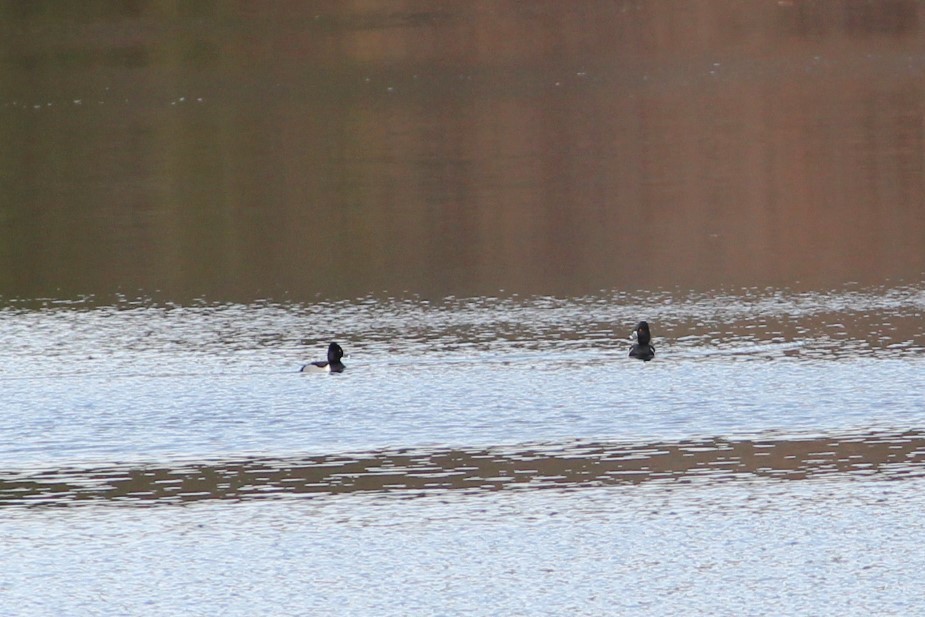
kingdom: Animalia
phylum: Chordata
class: Aves
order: Anseriformes
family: Anatidae
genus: Aythya
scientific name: Aythya collaris
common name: Ring-necked duck
